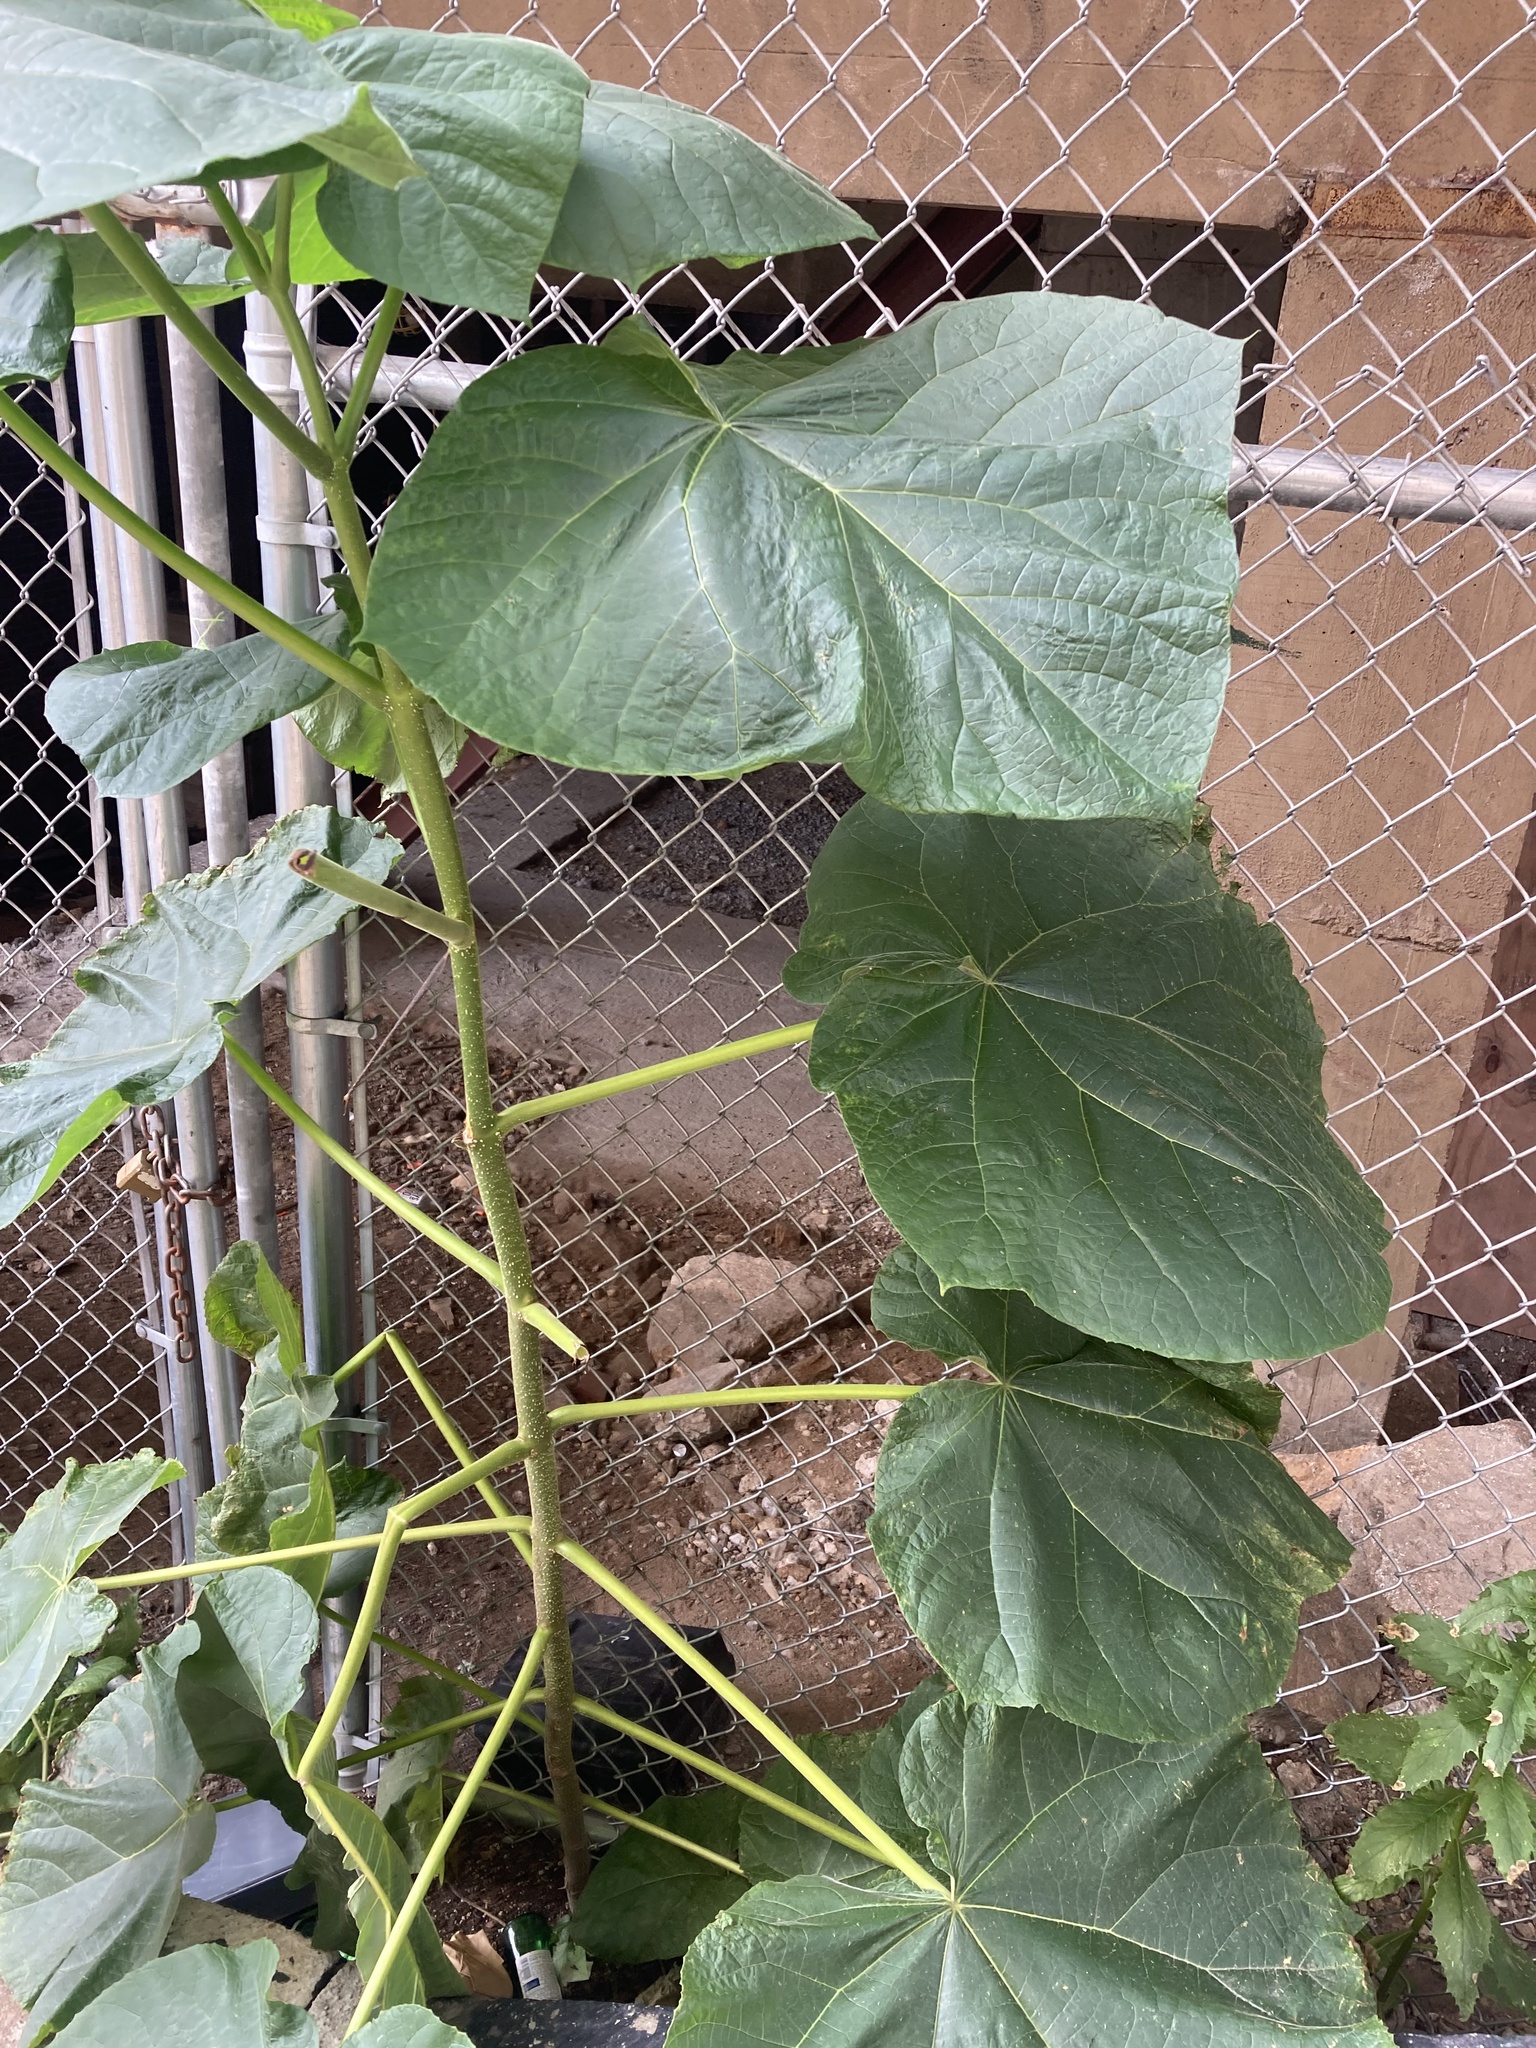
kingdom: Plantae
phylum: Tracheophyta
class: Magnoliopsida
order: Lamiales
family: Paulowniaceae
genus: Paulownia
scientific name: Paulownia tomentosa
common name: Foxglove-tree
